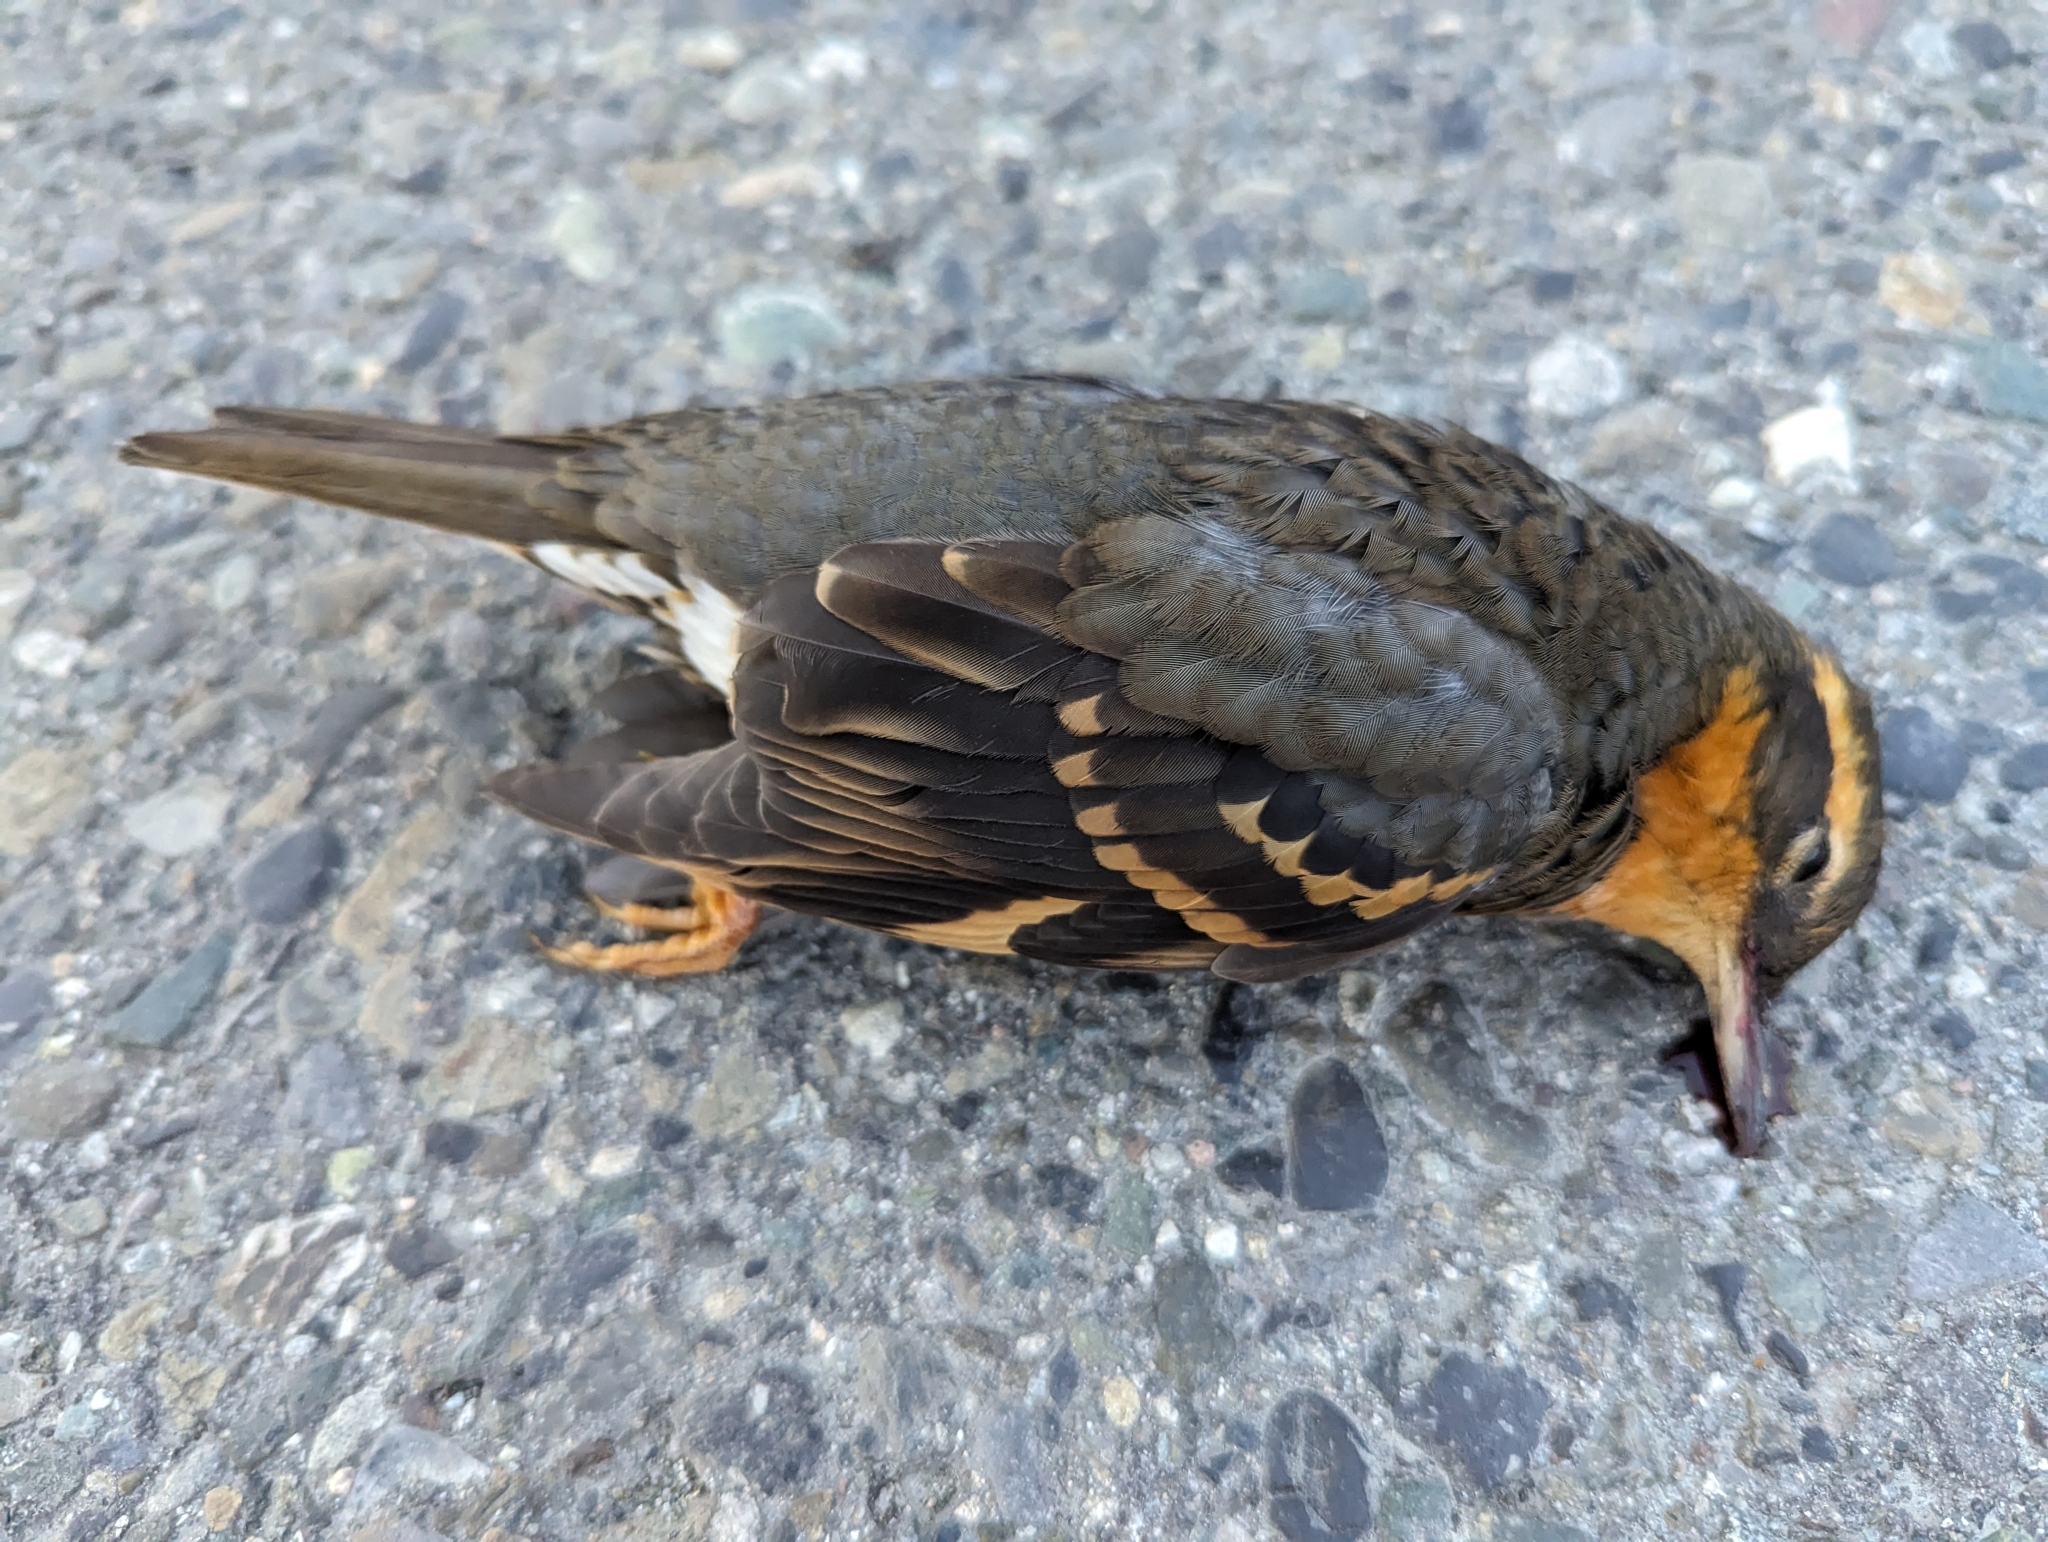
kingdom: Animalia
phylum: Chordata
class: Aves
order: Passeriformes
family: Turdidae
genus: Ixoreus
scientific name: Ixoreus naevius
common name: Varied thrush
